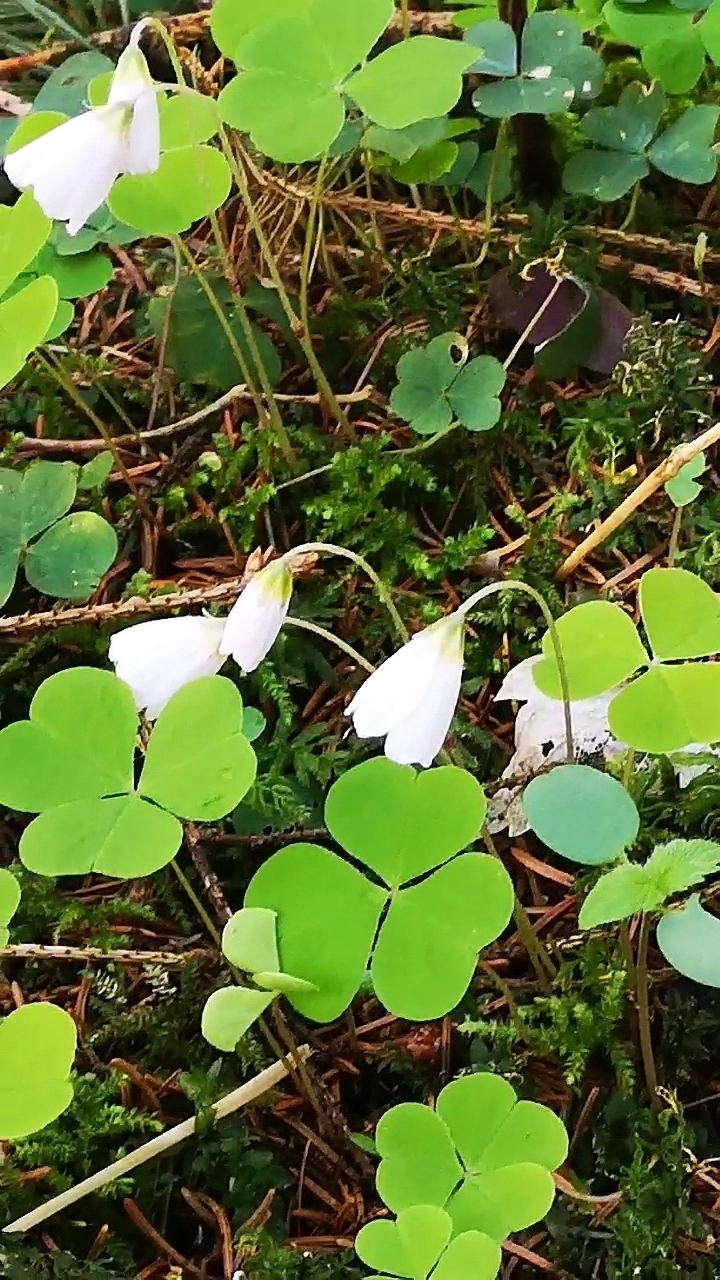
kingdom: Plantae
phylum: Tracheophyta
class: Magnoliopsida
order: Oxalidales
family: Oxalidaceae
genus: Oxalis
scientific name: Oxalis acetosella
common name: Wood-sorrel
